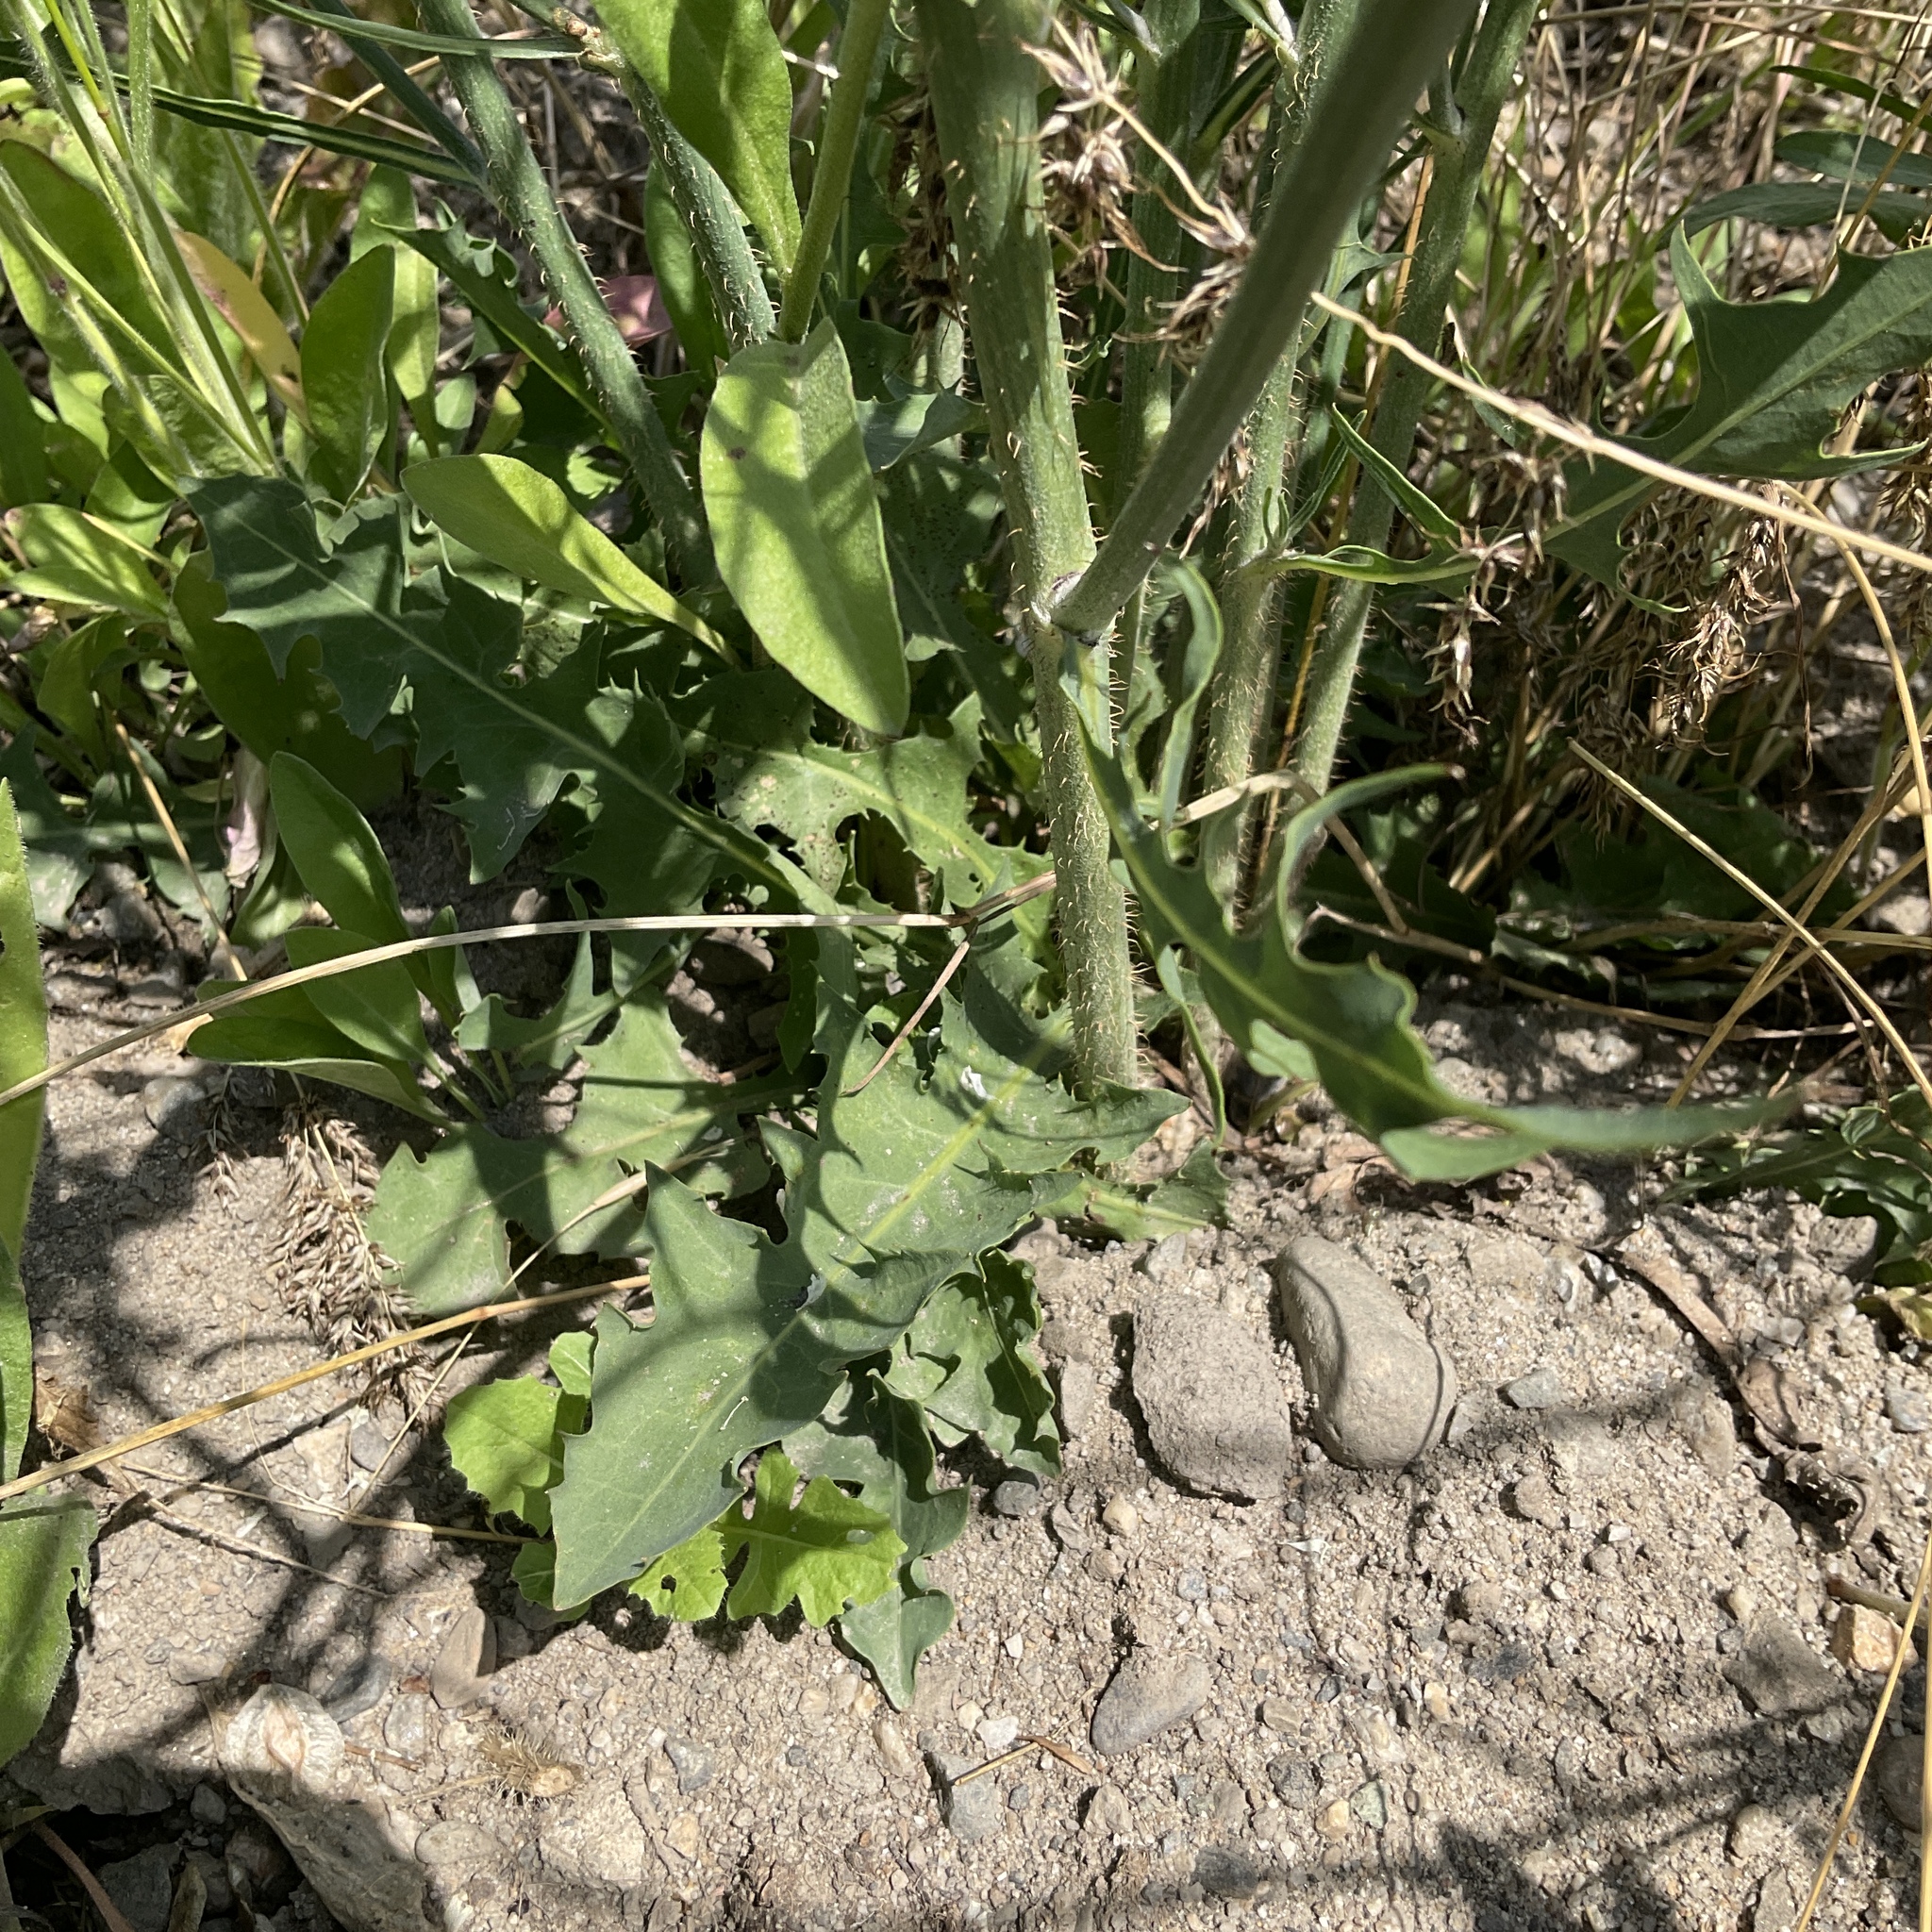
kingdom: Plantae
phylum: Tracheophyta
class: Magnoliopsida
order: Asterales
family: Asteraceae
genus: Chondrilla
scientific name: Chondrilla juncea
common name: Skeleton weed
